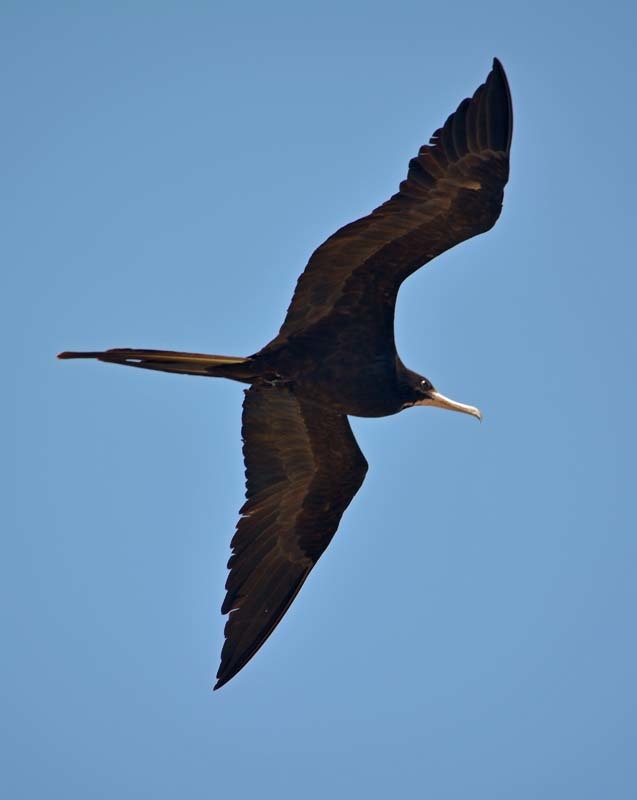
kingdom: Animalia
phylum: Chordata
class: Aves
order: Suliformes
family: Fregatidae
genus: Fregata
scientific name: Fregata magnificens
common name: Magnificent frigatebird
